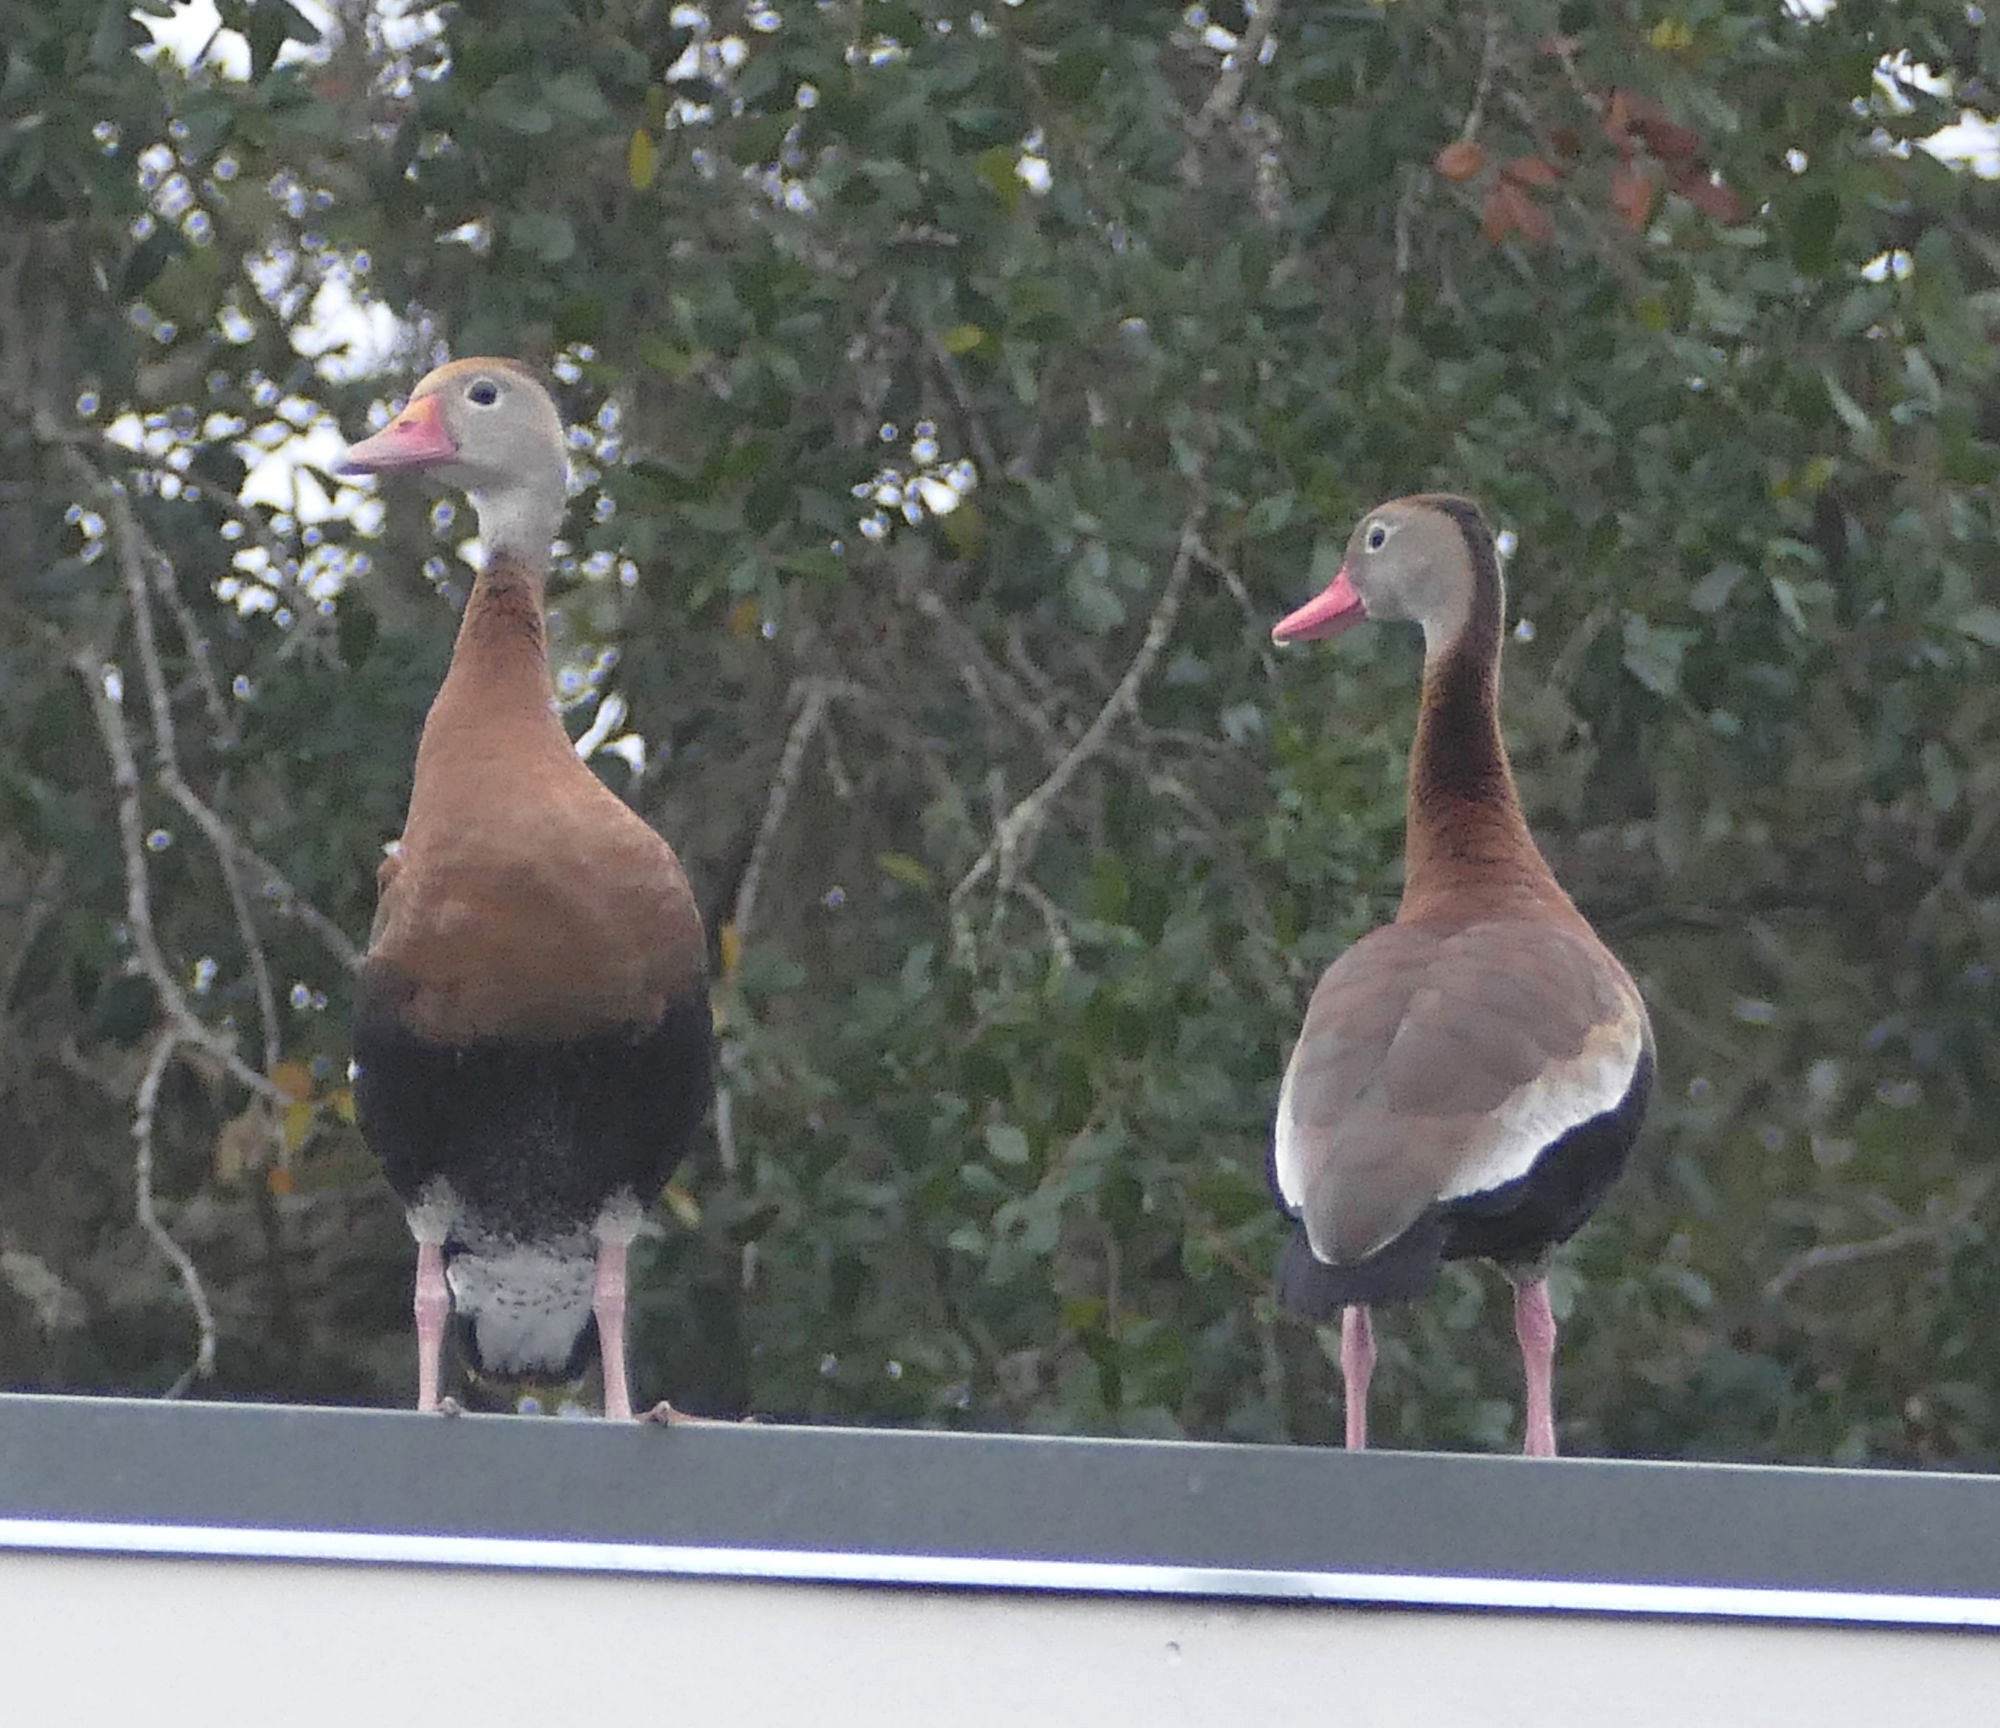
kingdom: Animalia
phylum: Chordata
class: Aves
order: Anseriformes
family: Anatidae
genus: Dendrocygna
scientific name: Dendrocygna autumnalis
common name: Black-bellied whistling duck
